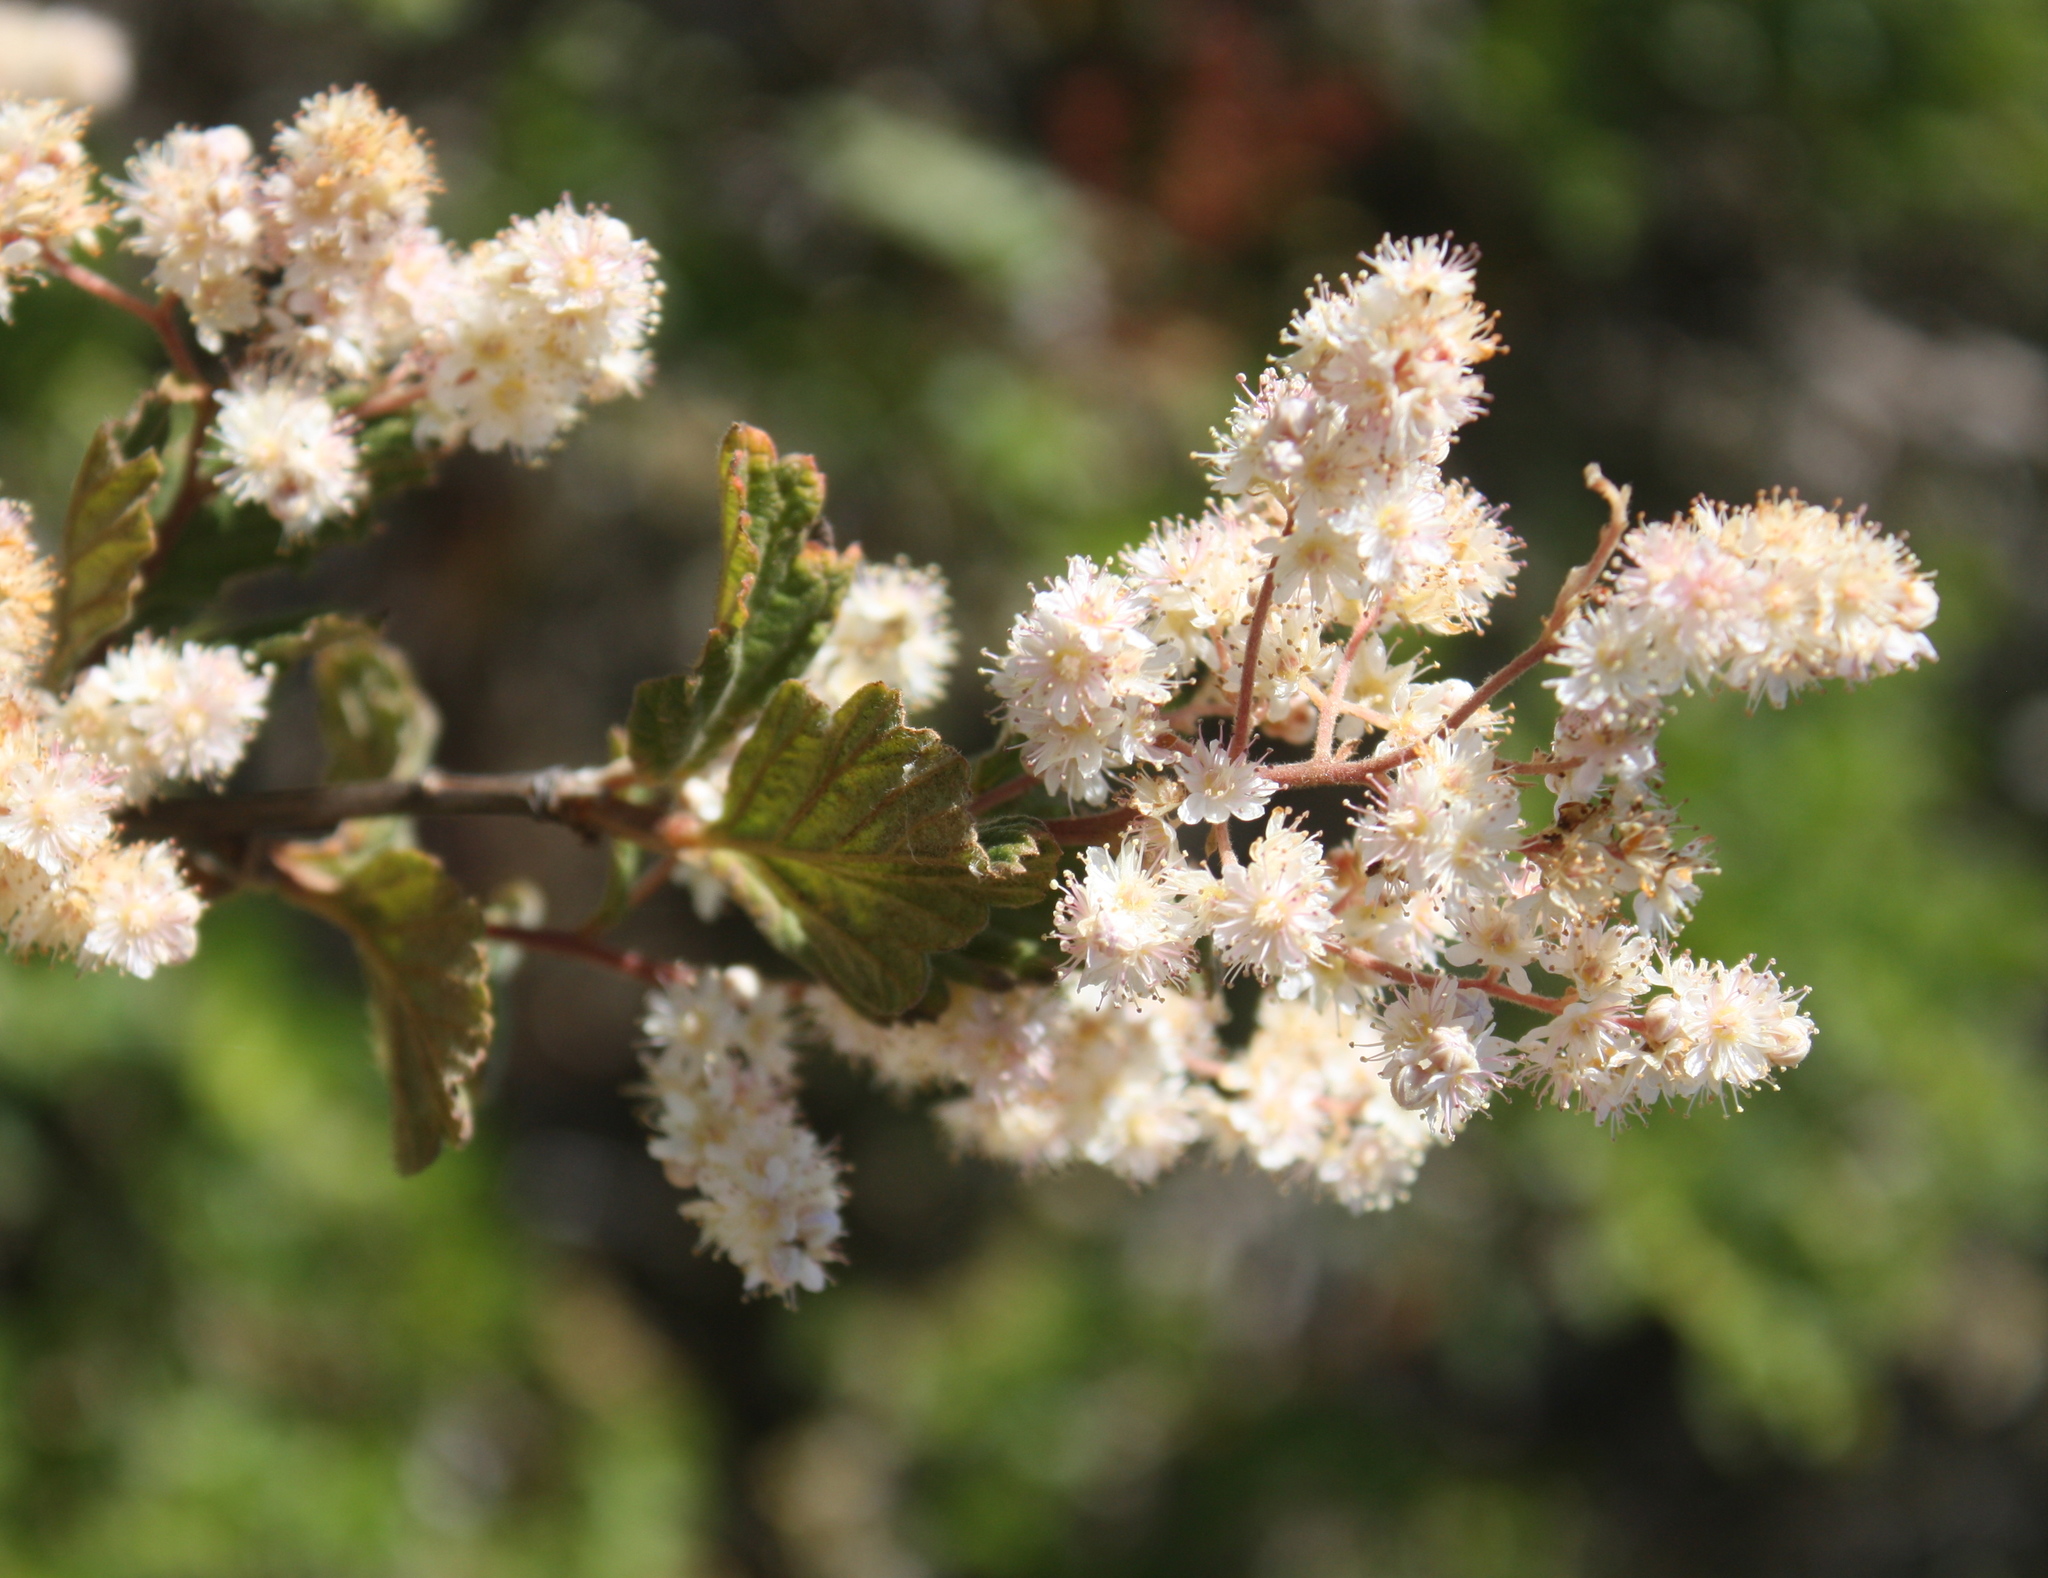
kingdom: Plantae
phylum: Tracheophyta
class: Magnoliopsida
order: Rosales
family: Rosaceae
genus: Holodiscus
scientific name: Holodiscus discolor
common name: Oceanspray
